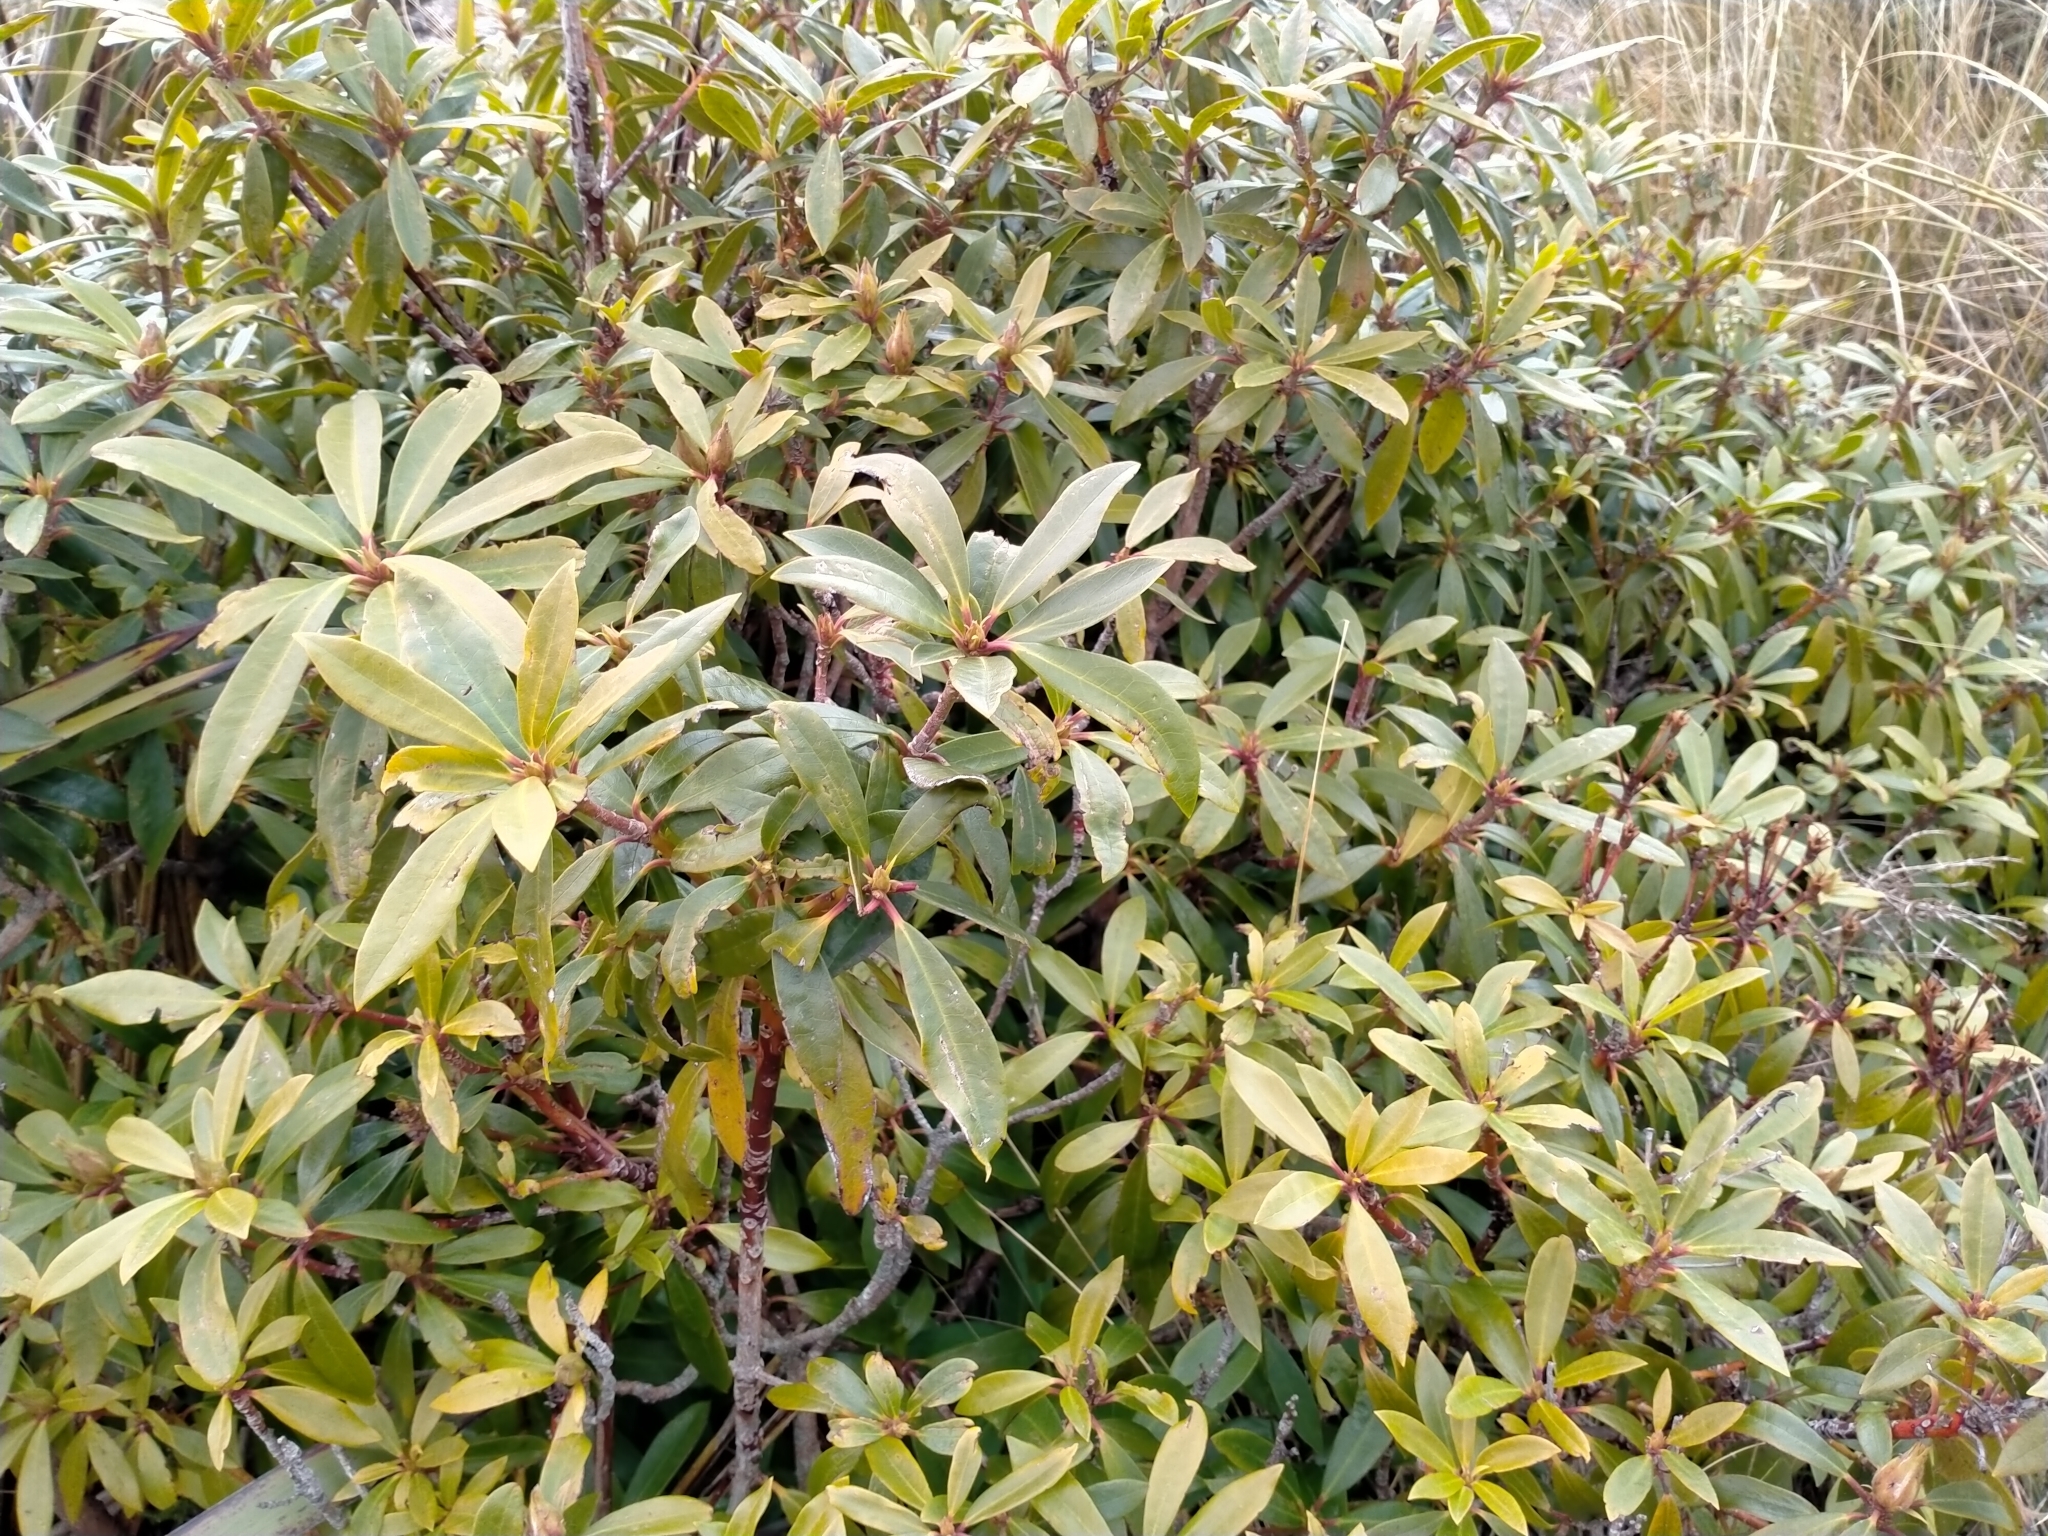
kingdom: Plantae
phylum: Tracheophyta
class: Magnoliopsida
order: Ericales
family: Ericaceae
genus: Rhododendron
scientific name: Rhododendron ponticum
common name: Rhododendron
